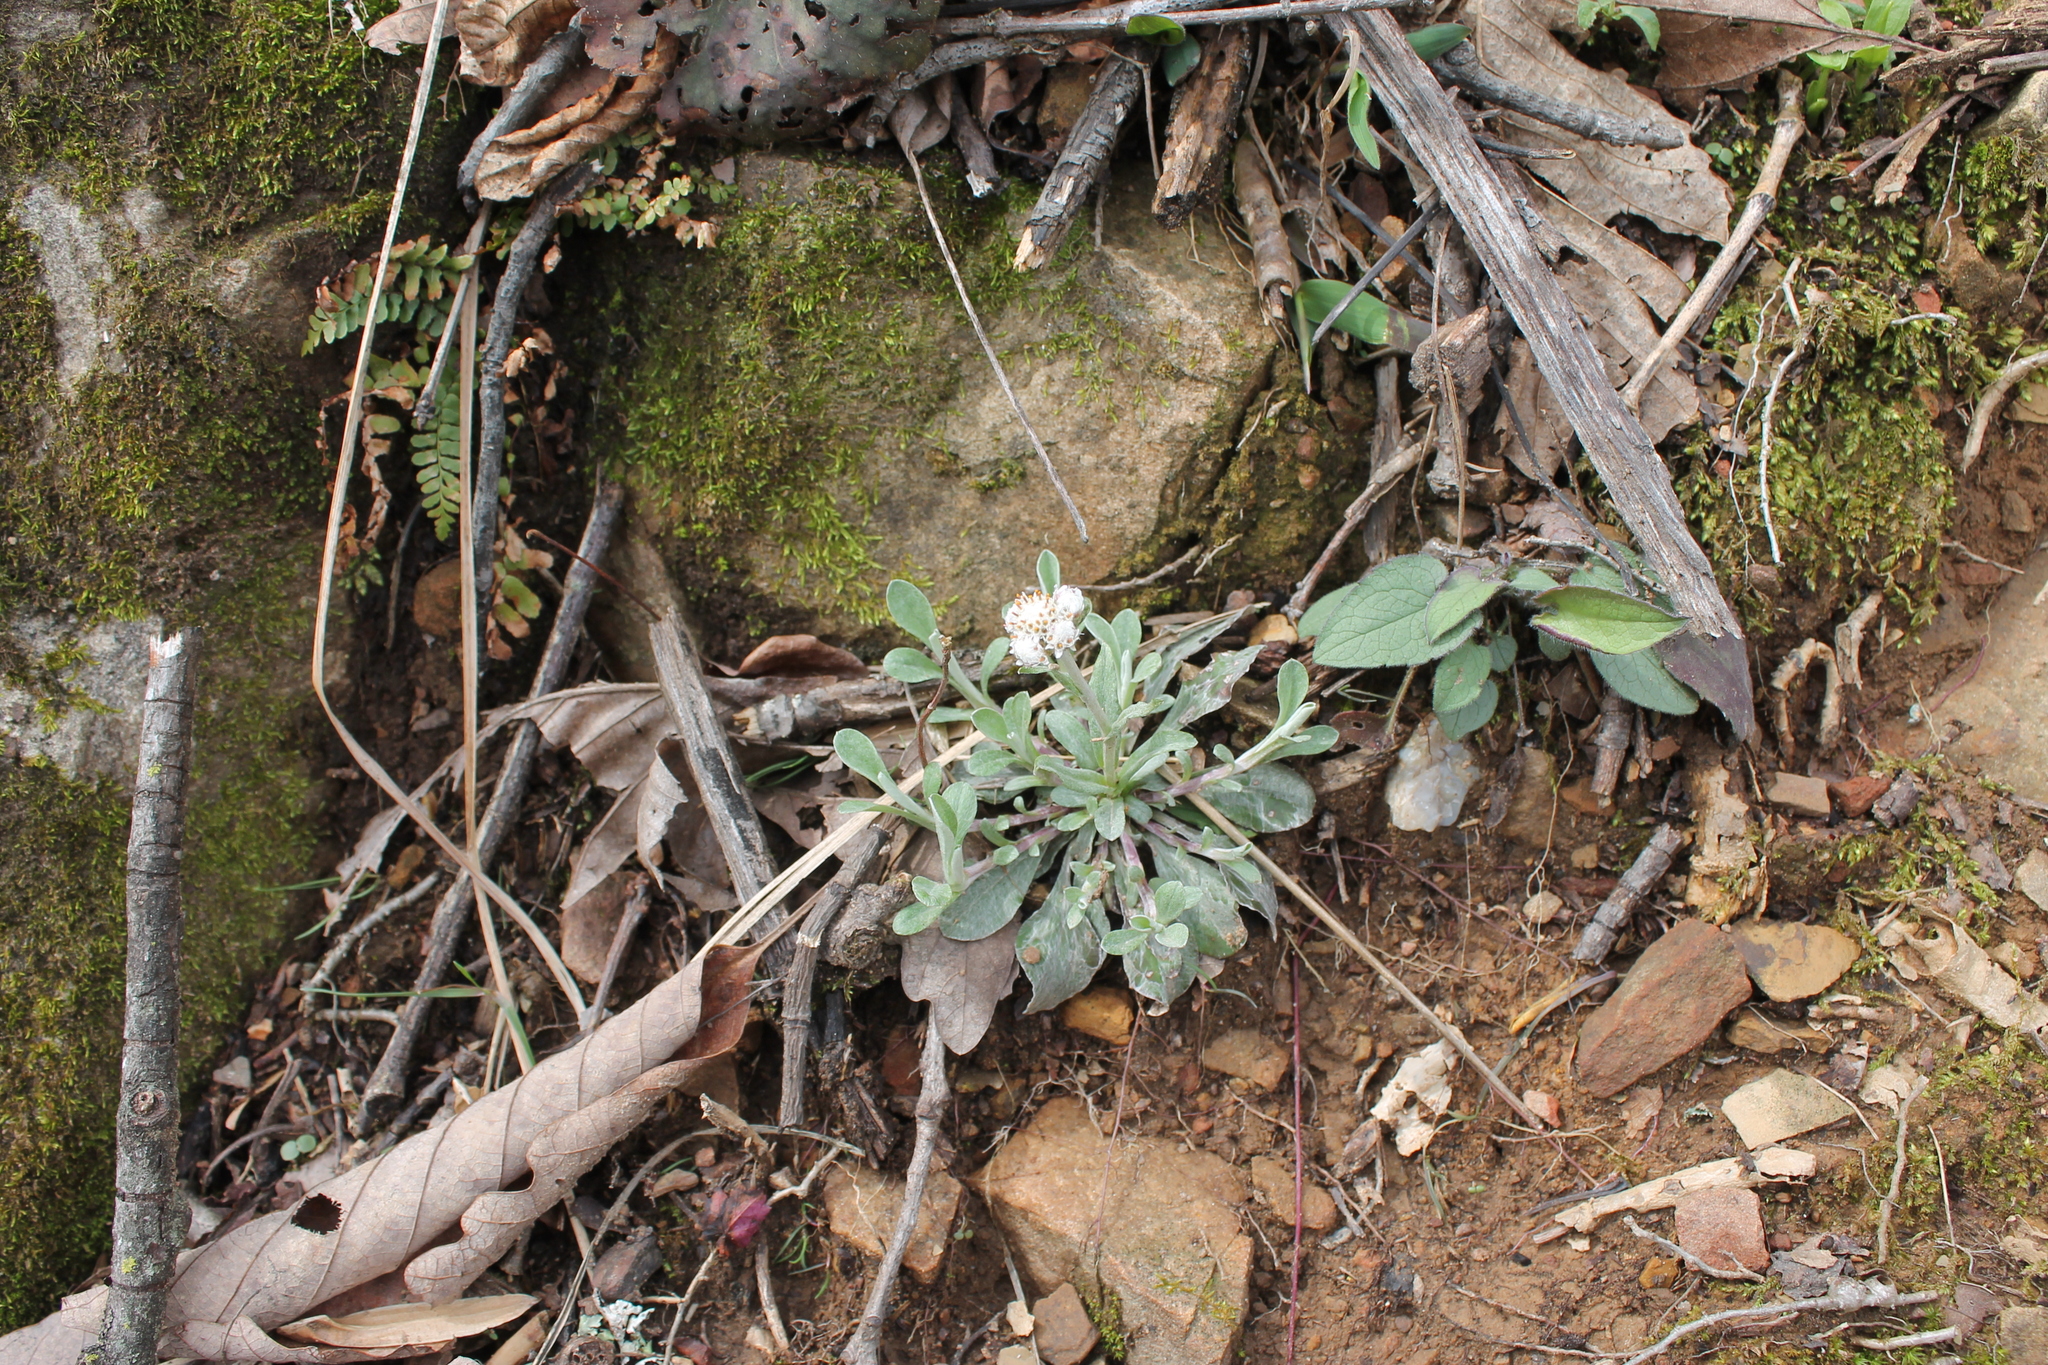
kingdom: Plantae
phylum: Tracheophyta
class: Magnoliopsida
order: Asterales
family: Asteraceae
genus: Antennaria
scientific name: Antennaria plantaginifolia
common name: Plantain-leaved pussytoes
